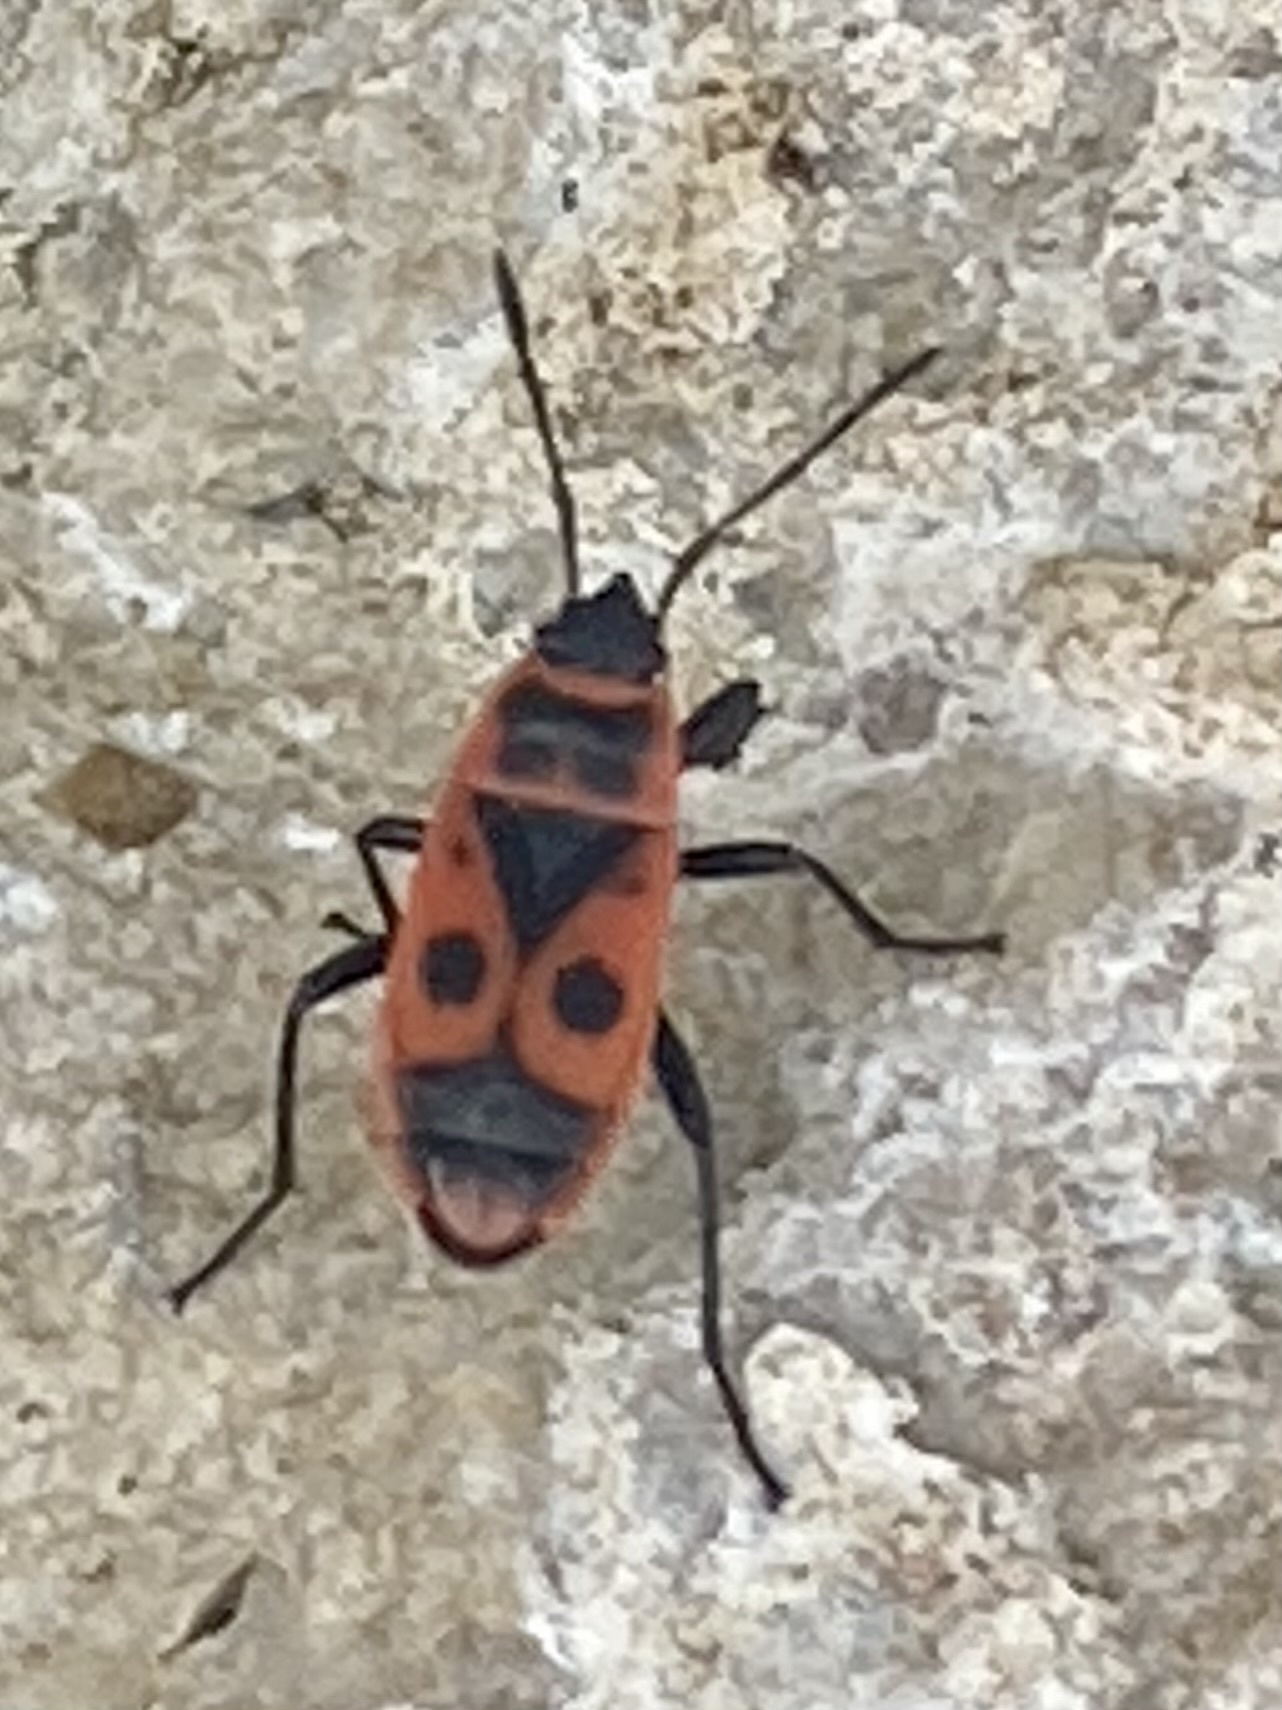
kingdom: Animalia
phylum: Arthropoda
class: Insecta
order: Hemiptera
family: Pyrrhocoridae
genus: Pyrrhocoris
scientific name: Pyrrhocoris apterus
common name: Firebug
